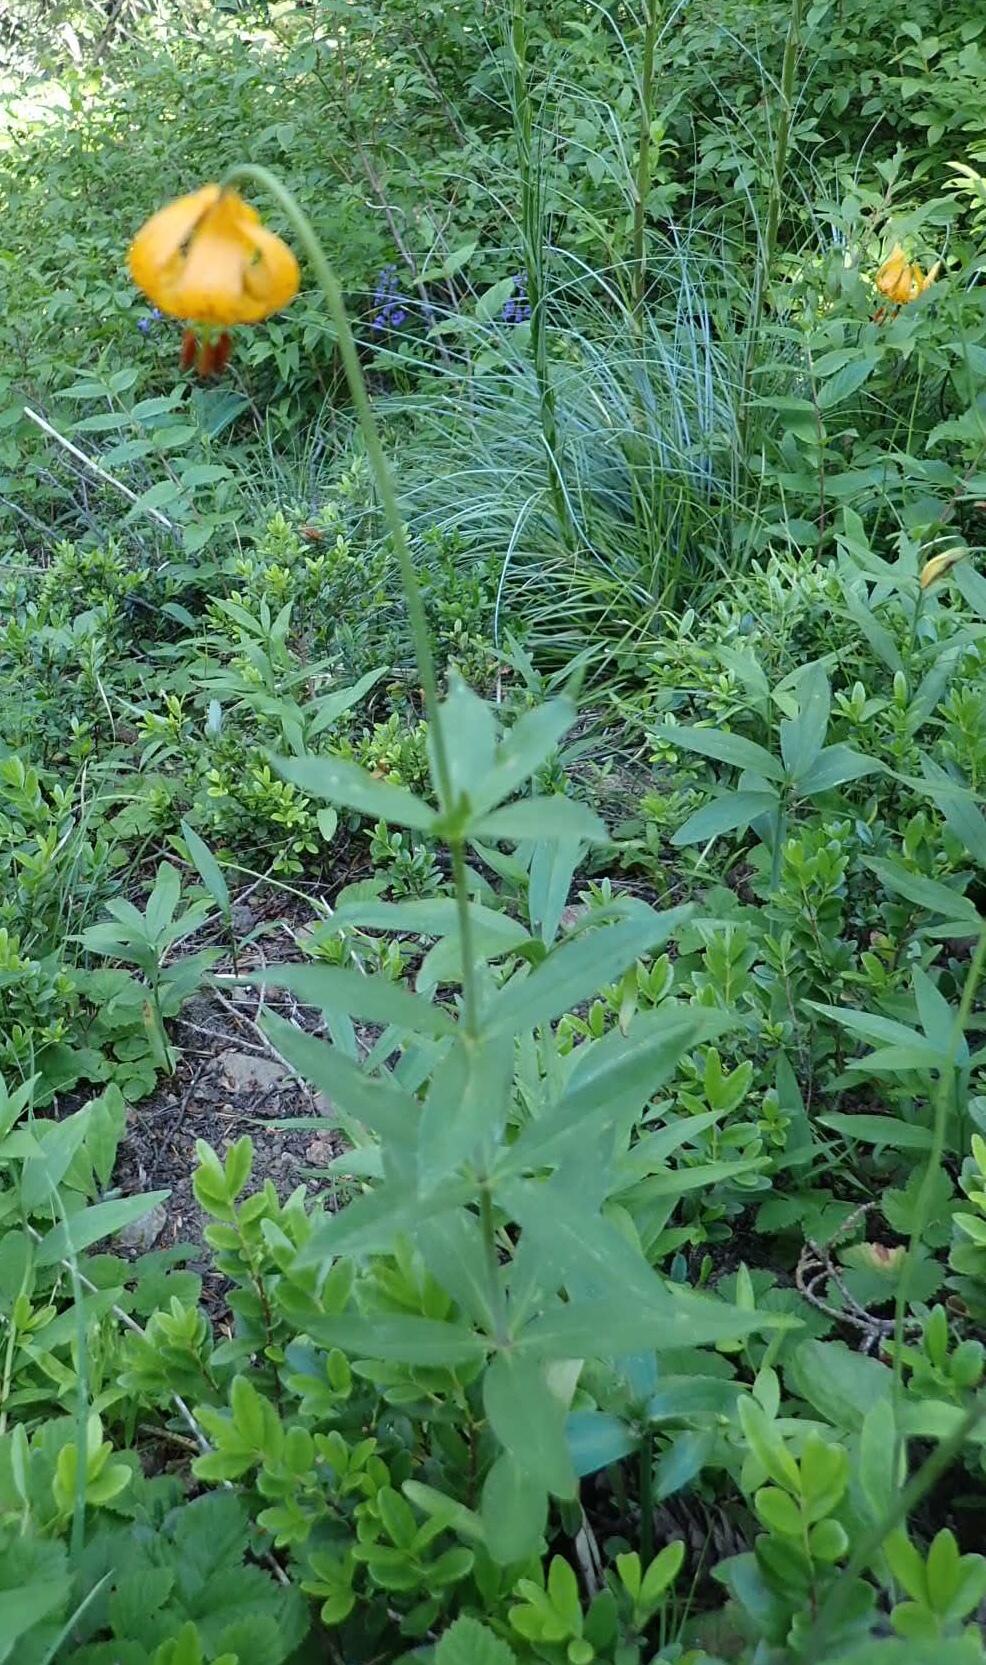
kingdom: Plantae
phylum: Tracheophyta
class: Liliopsida
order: Liliales
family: Liliaceae
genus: Lilium
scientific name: Lilium columbianum
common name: Columbia lily
